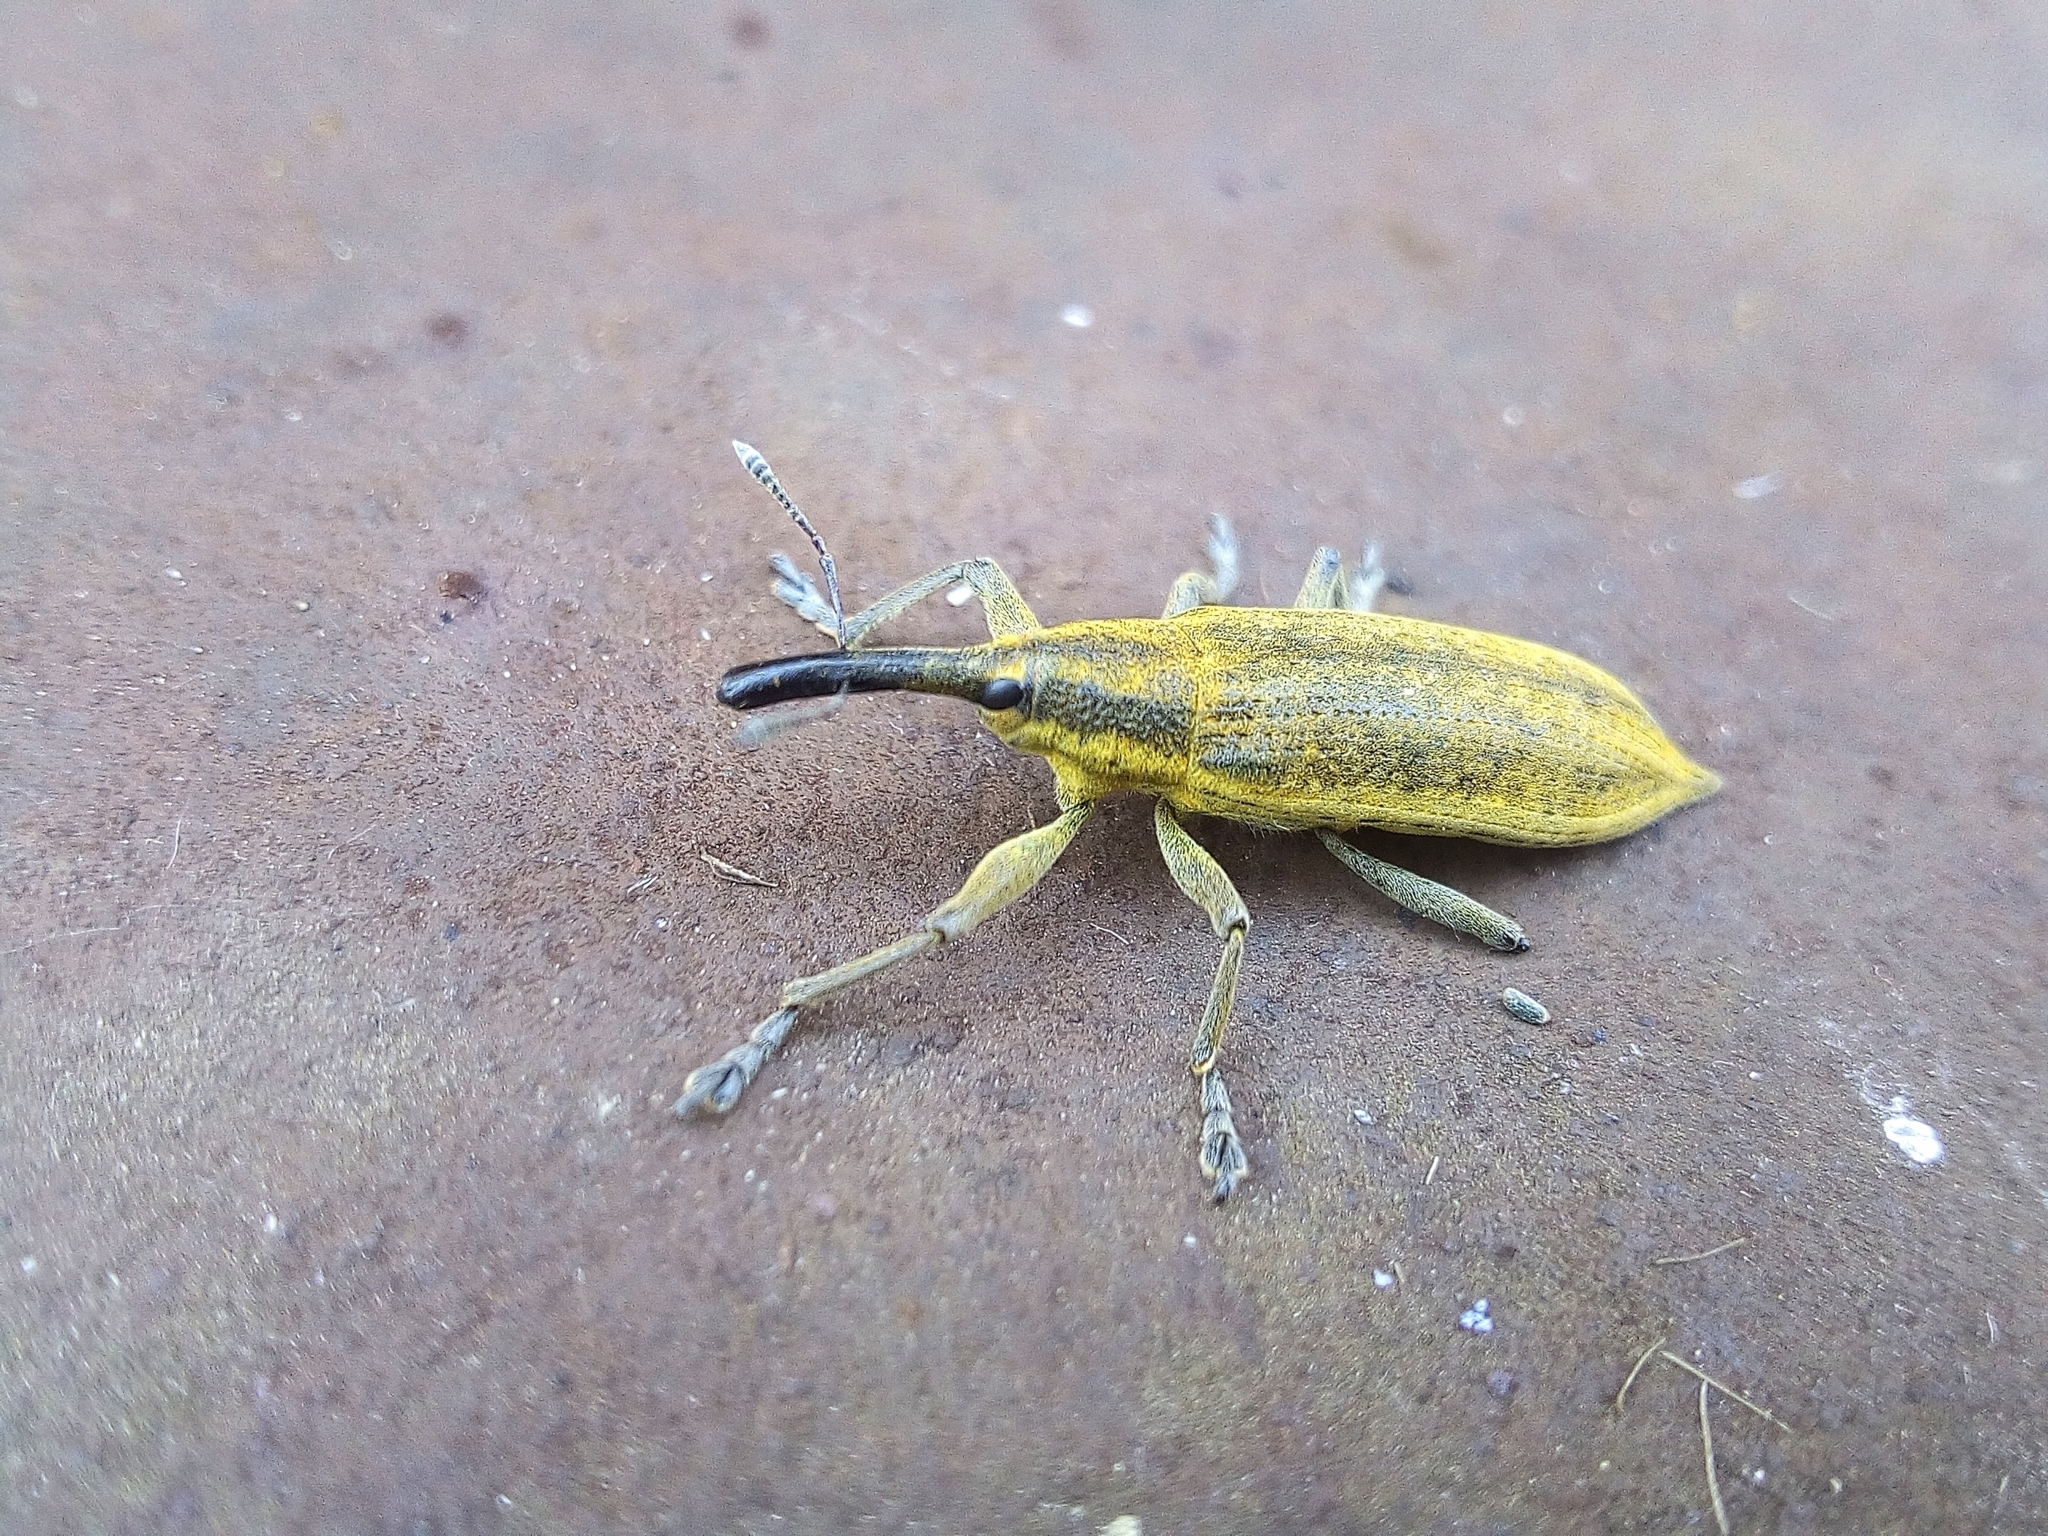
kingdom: Animalia
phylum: Arthropoda
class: Insecta
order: Coleoptera
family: Curculionidae
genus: Lixus
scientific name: Lixus iridis
